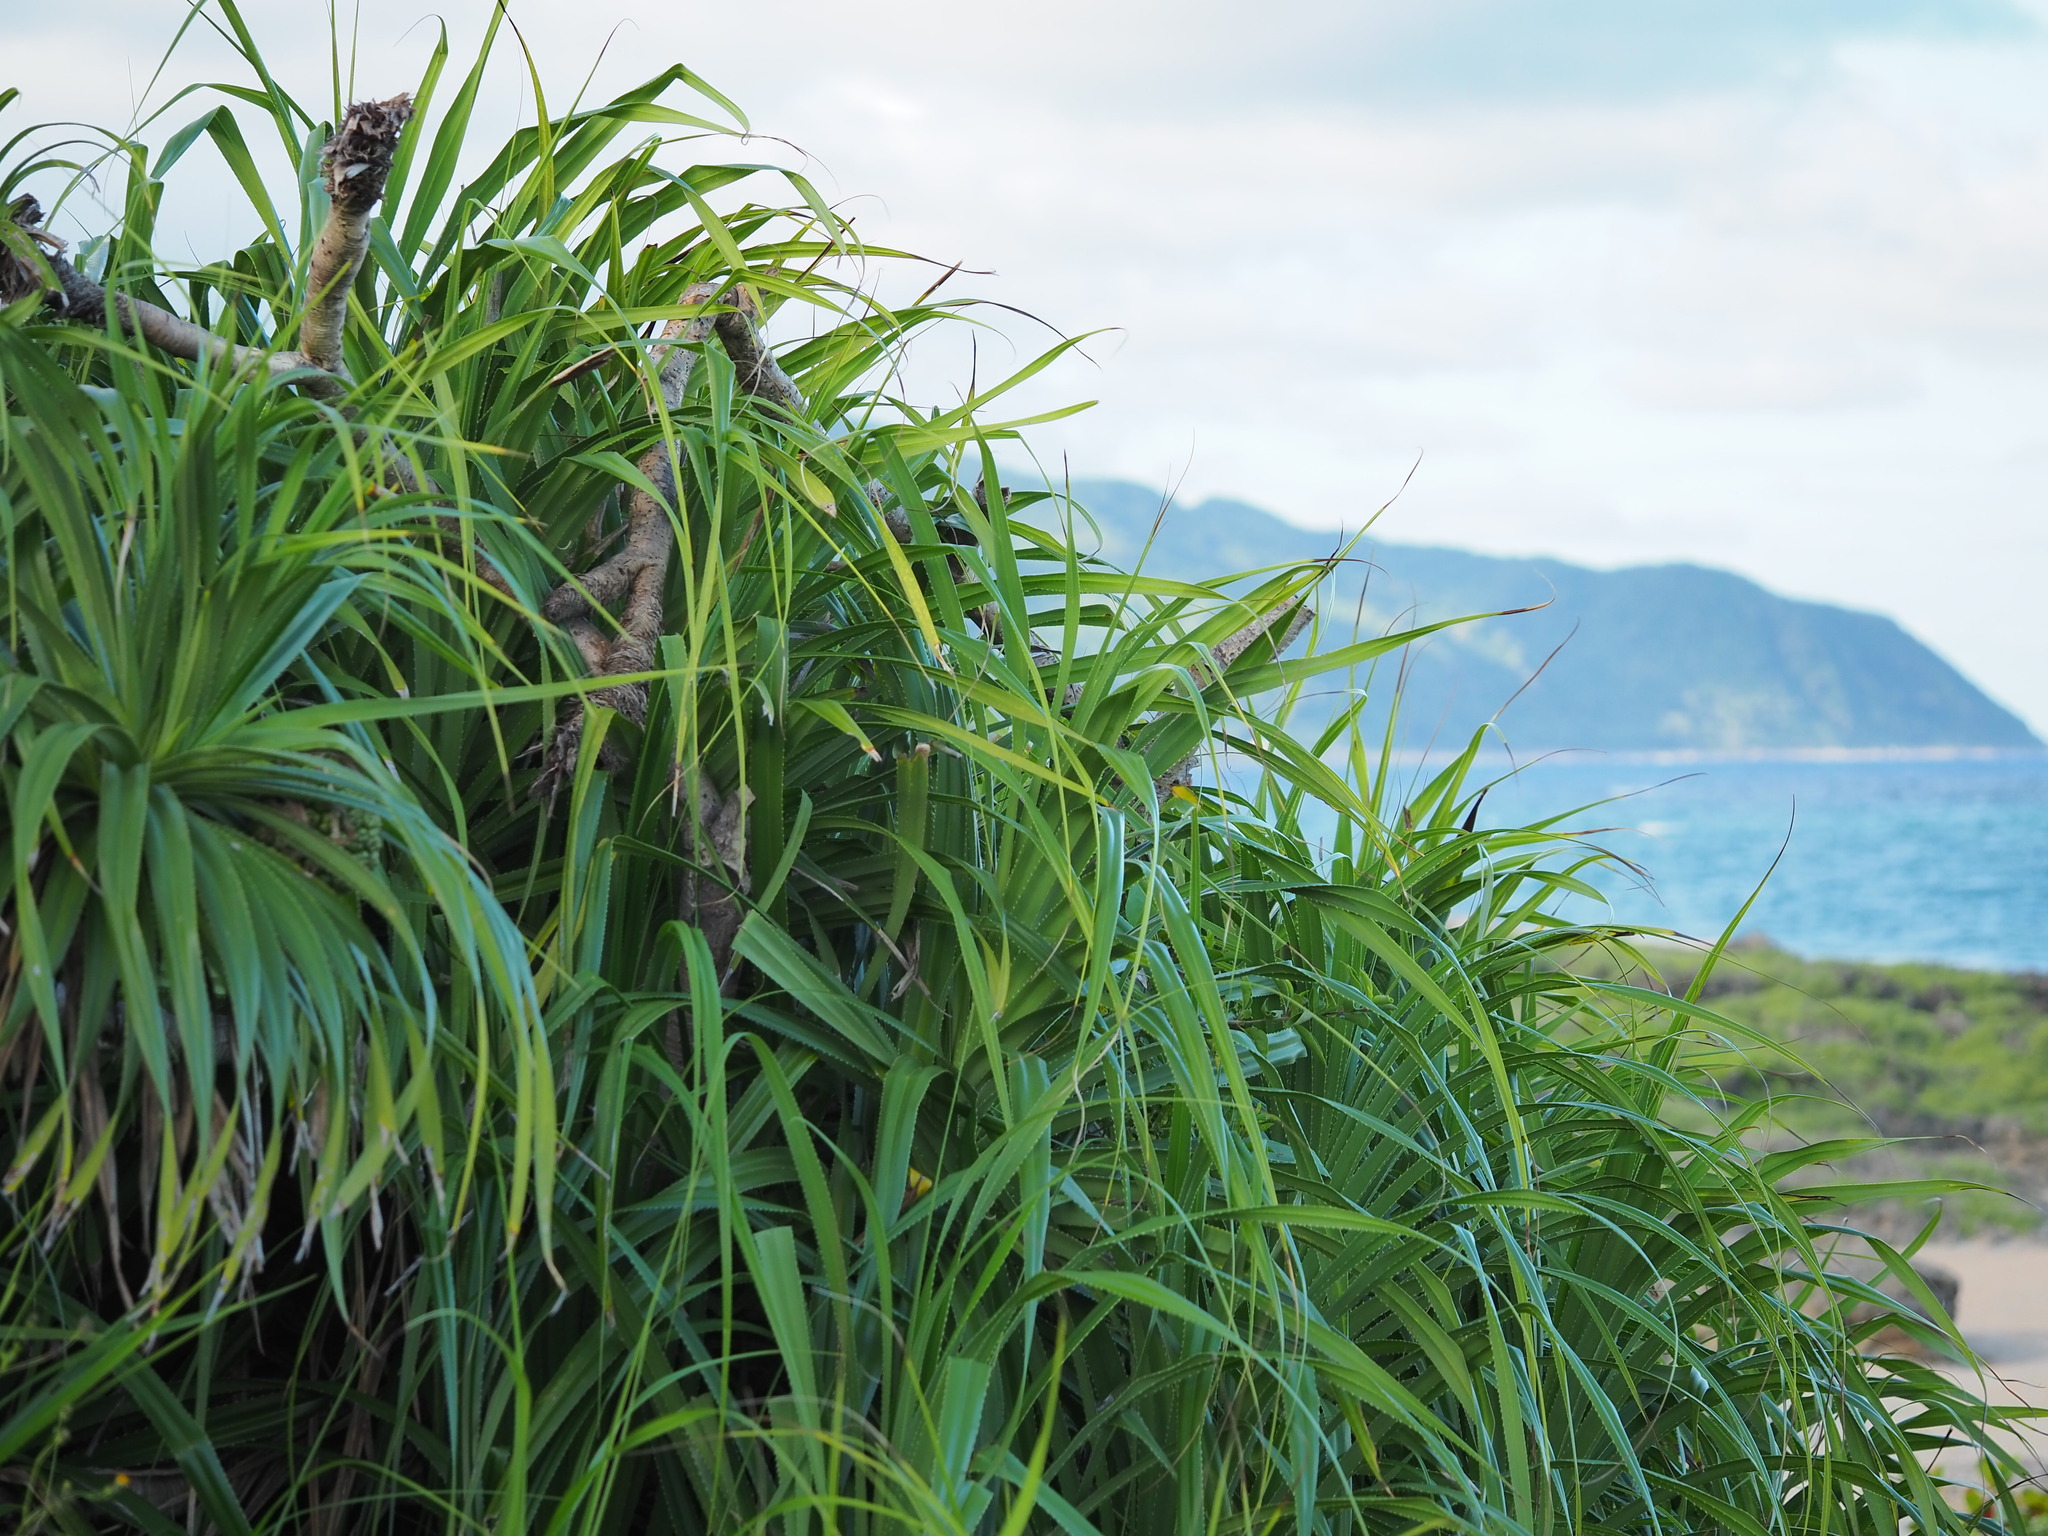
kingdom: Plantae
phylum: Tracheophyta
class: Liliopsida
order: Pandanales
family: Pandanaceae
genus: Pandanus
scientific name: Pandanus odorifer
